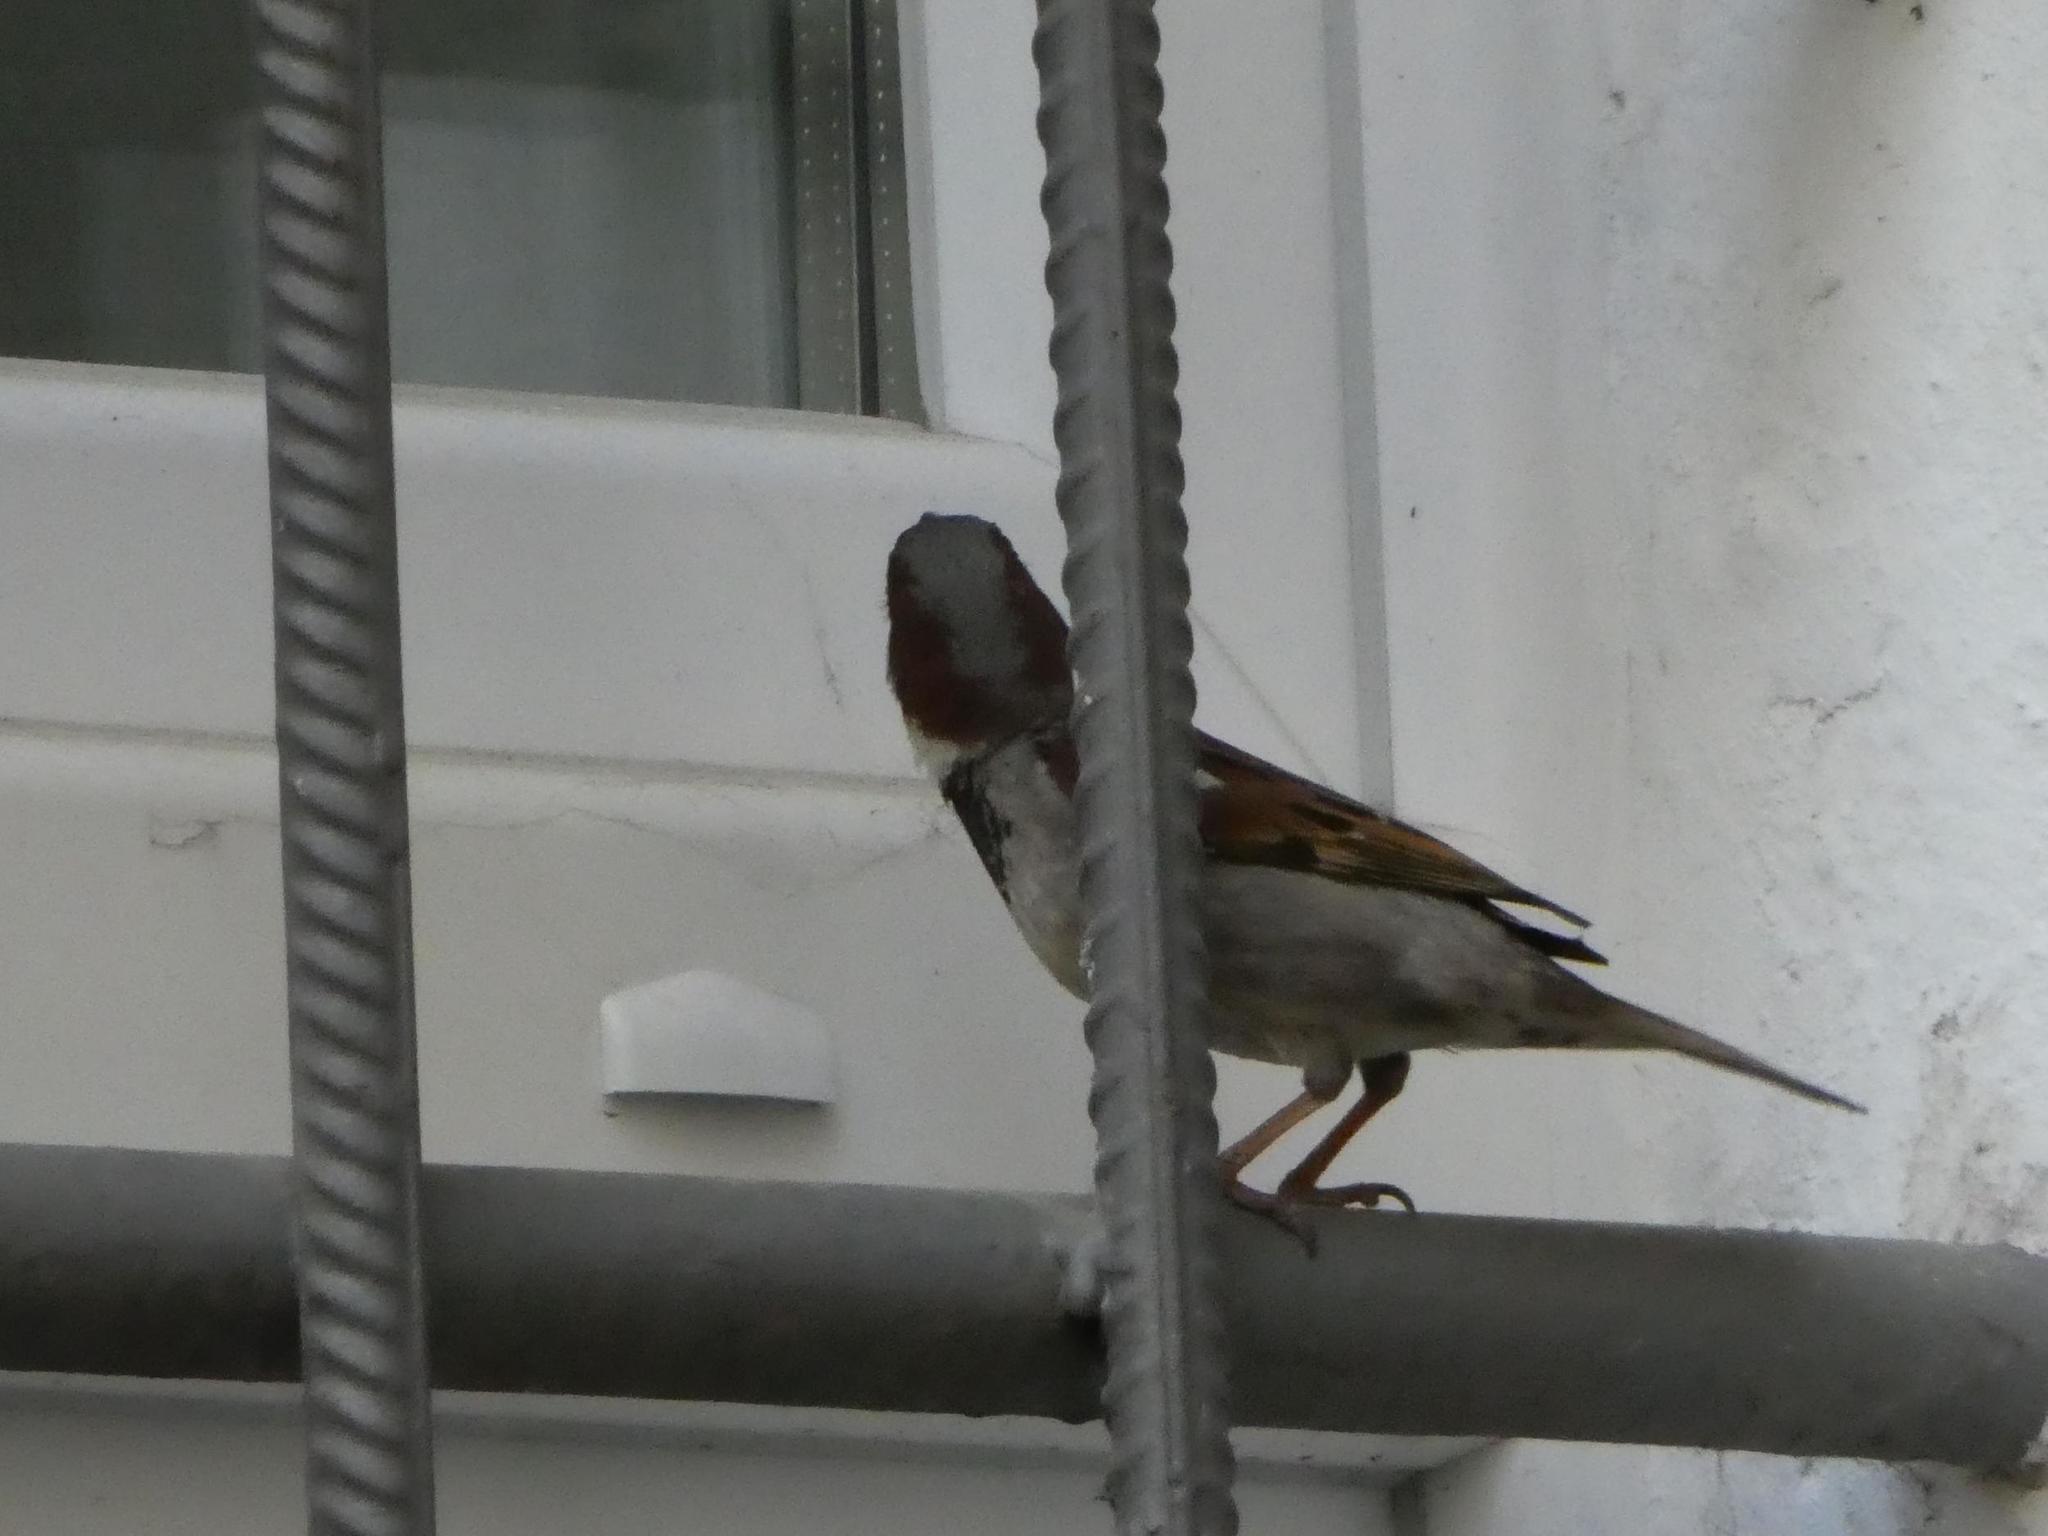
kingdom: Animalia
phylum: Chordata
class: Aves
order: Passeriformes
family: Passeridae
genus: Passer
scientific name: Passer domesticus
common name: House sparrow
